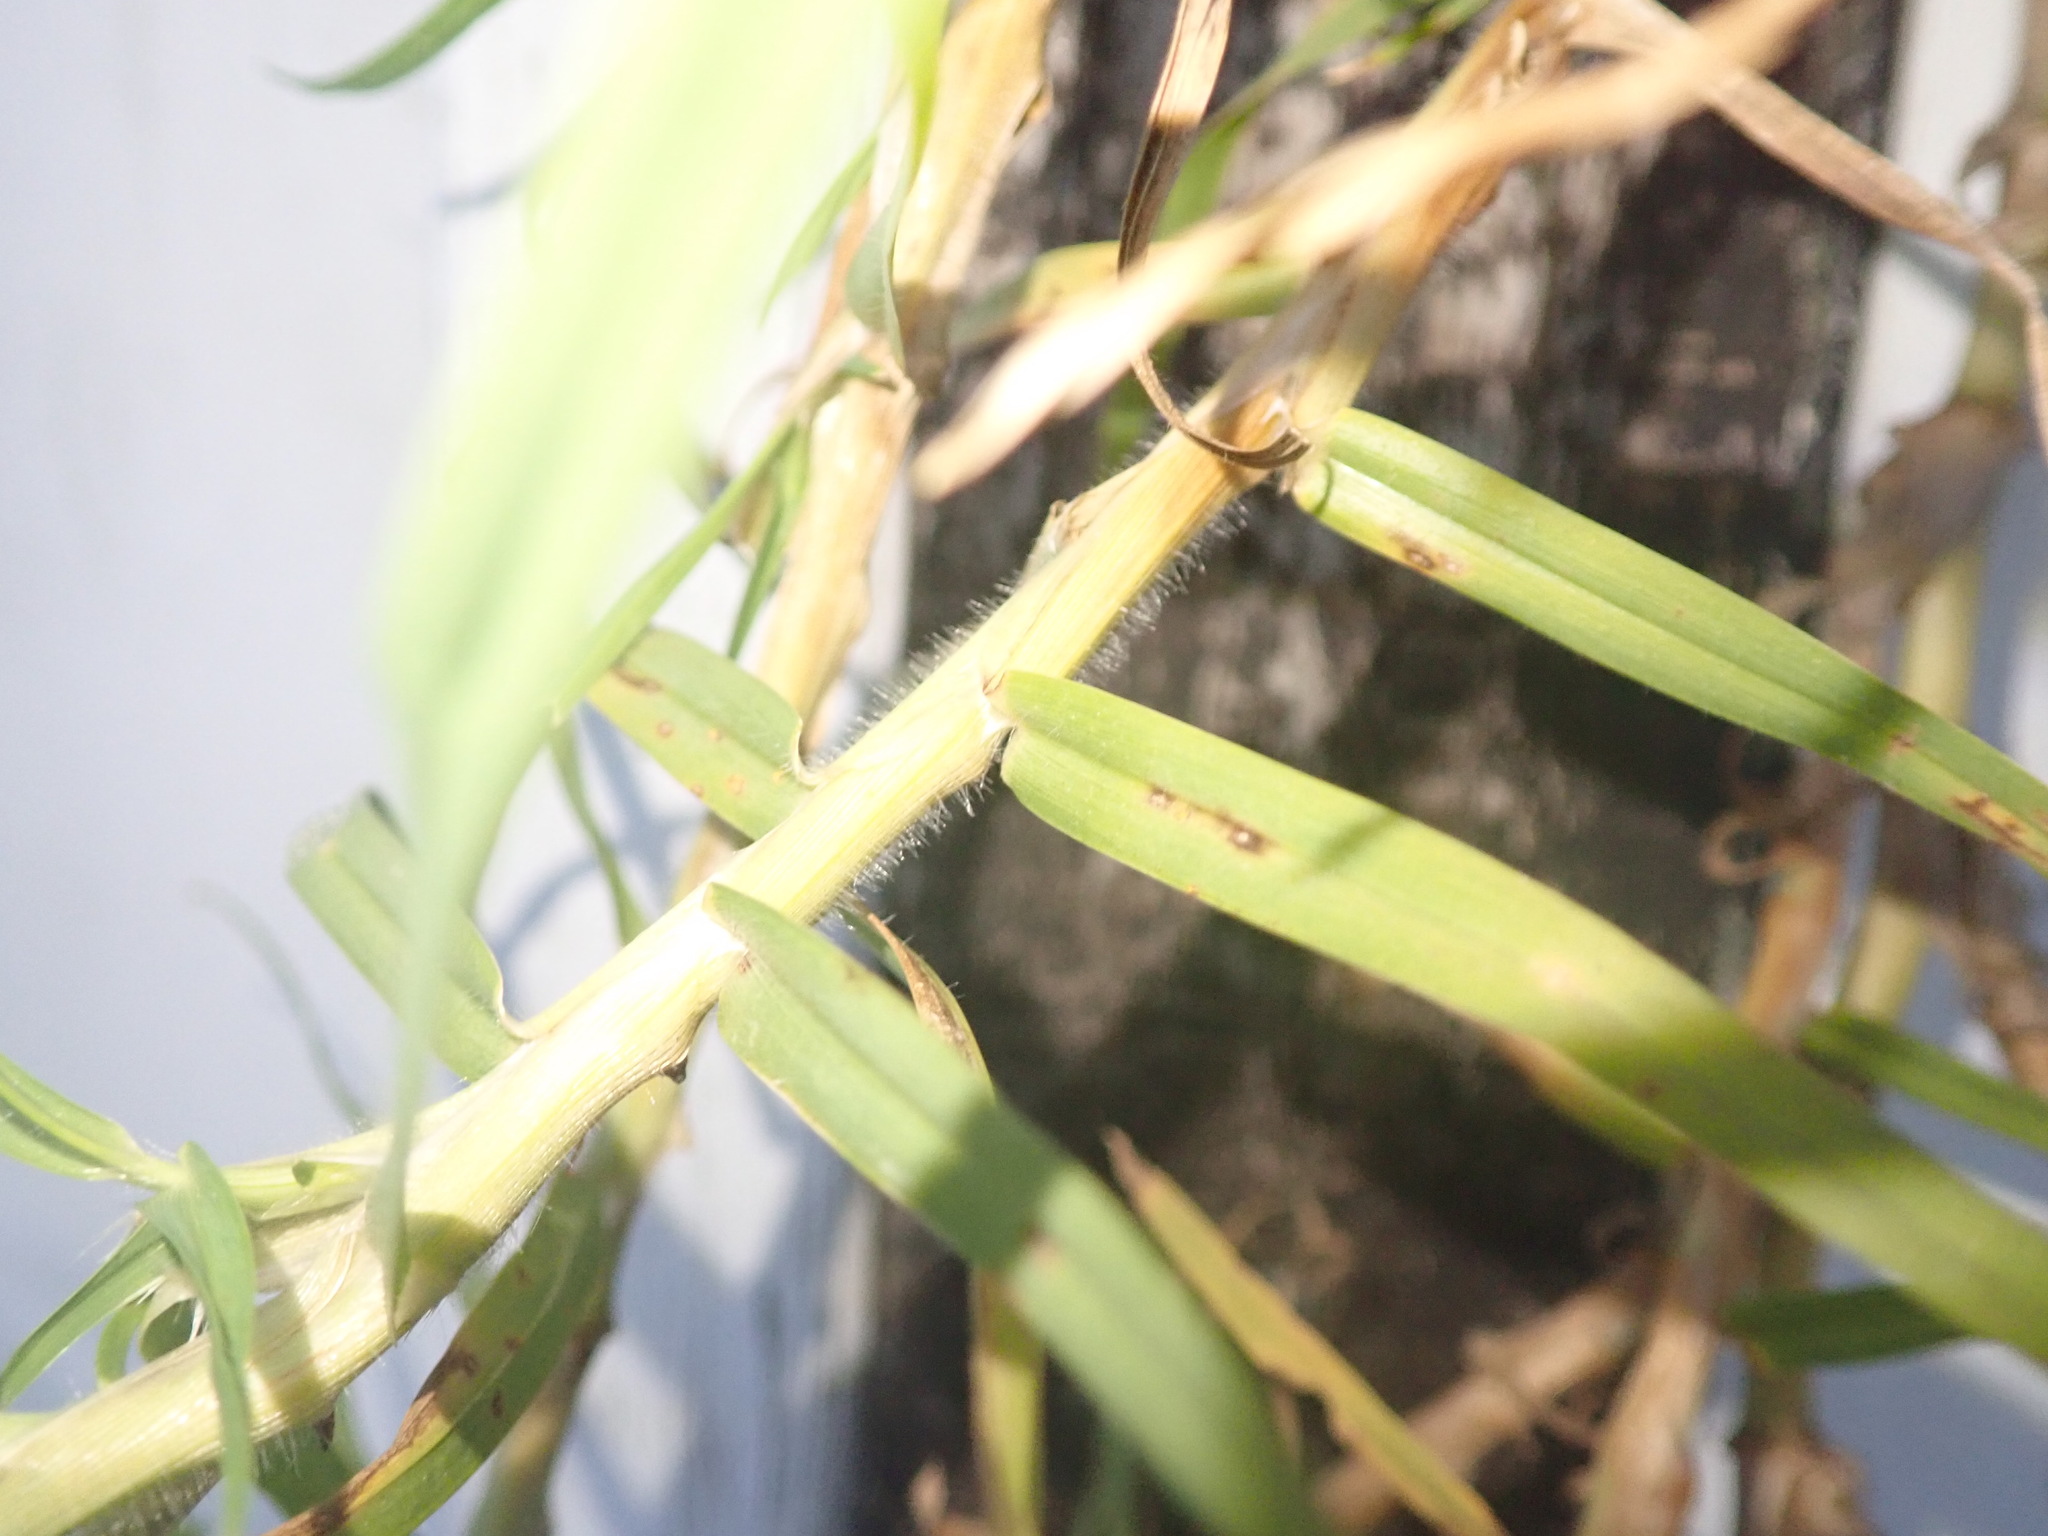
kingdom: Plantae
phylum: Tracheophyta
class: Liliopsida
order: Poales
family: Poaceae
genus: Cenchrus
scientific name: Cenchrus clandestinus
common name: Kikuyugrass
